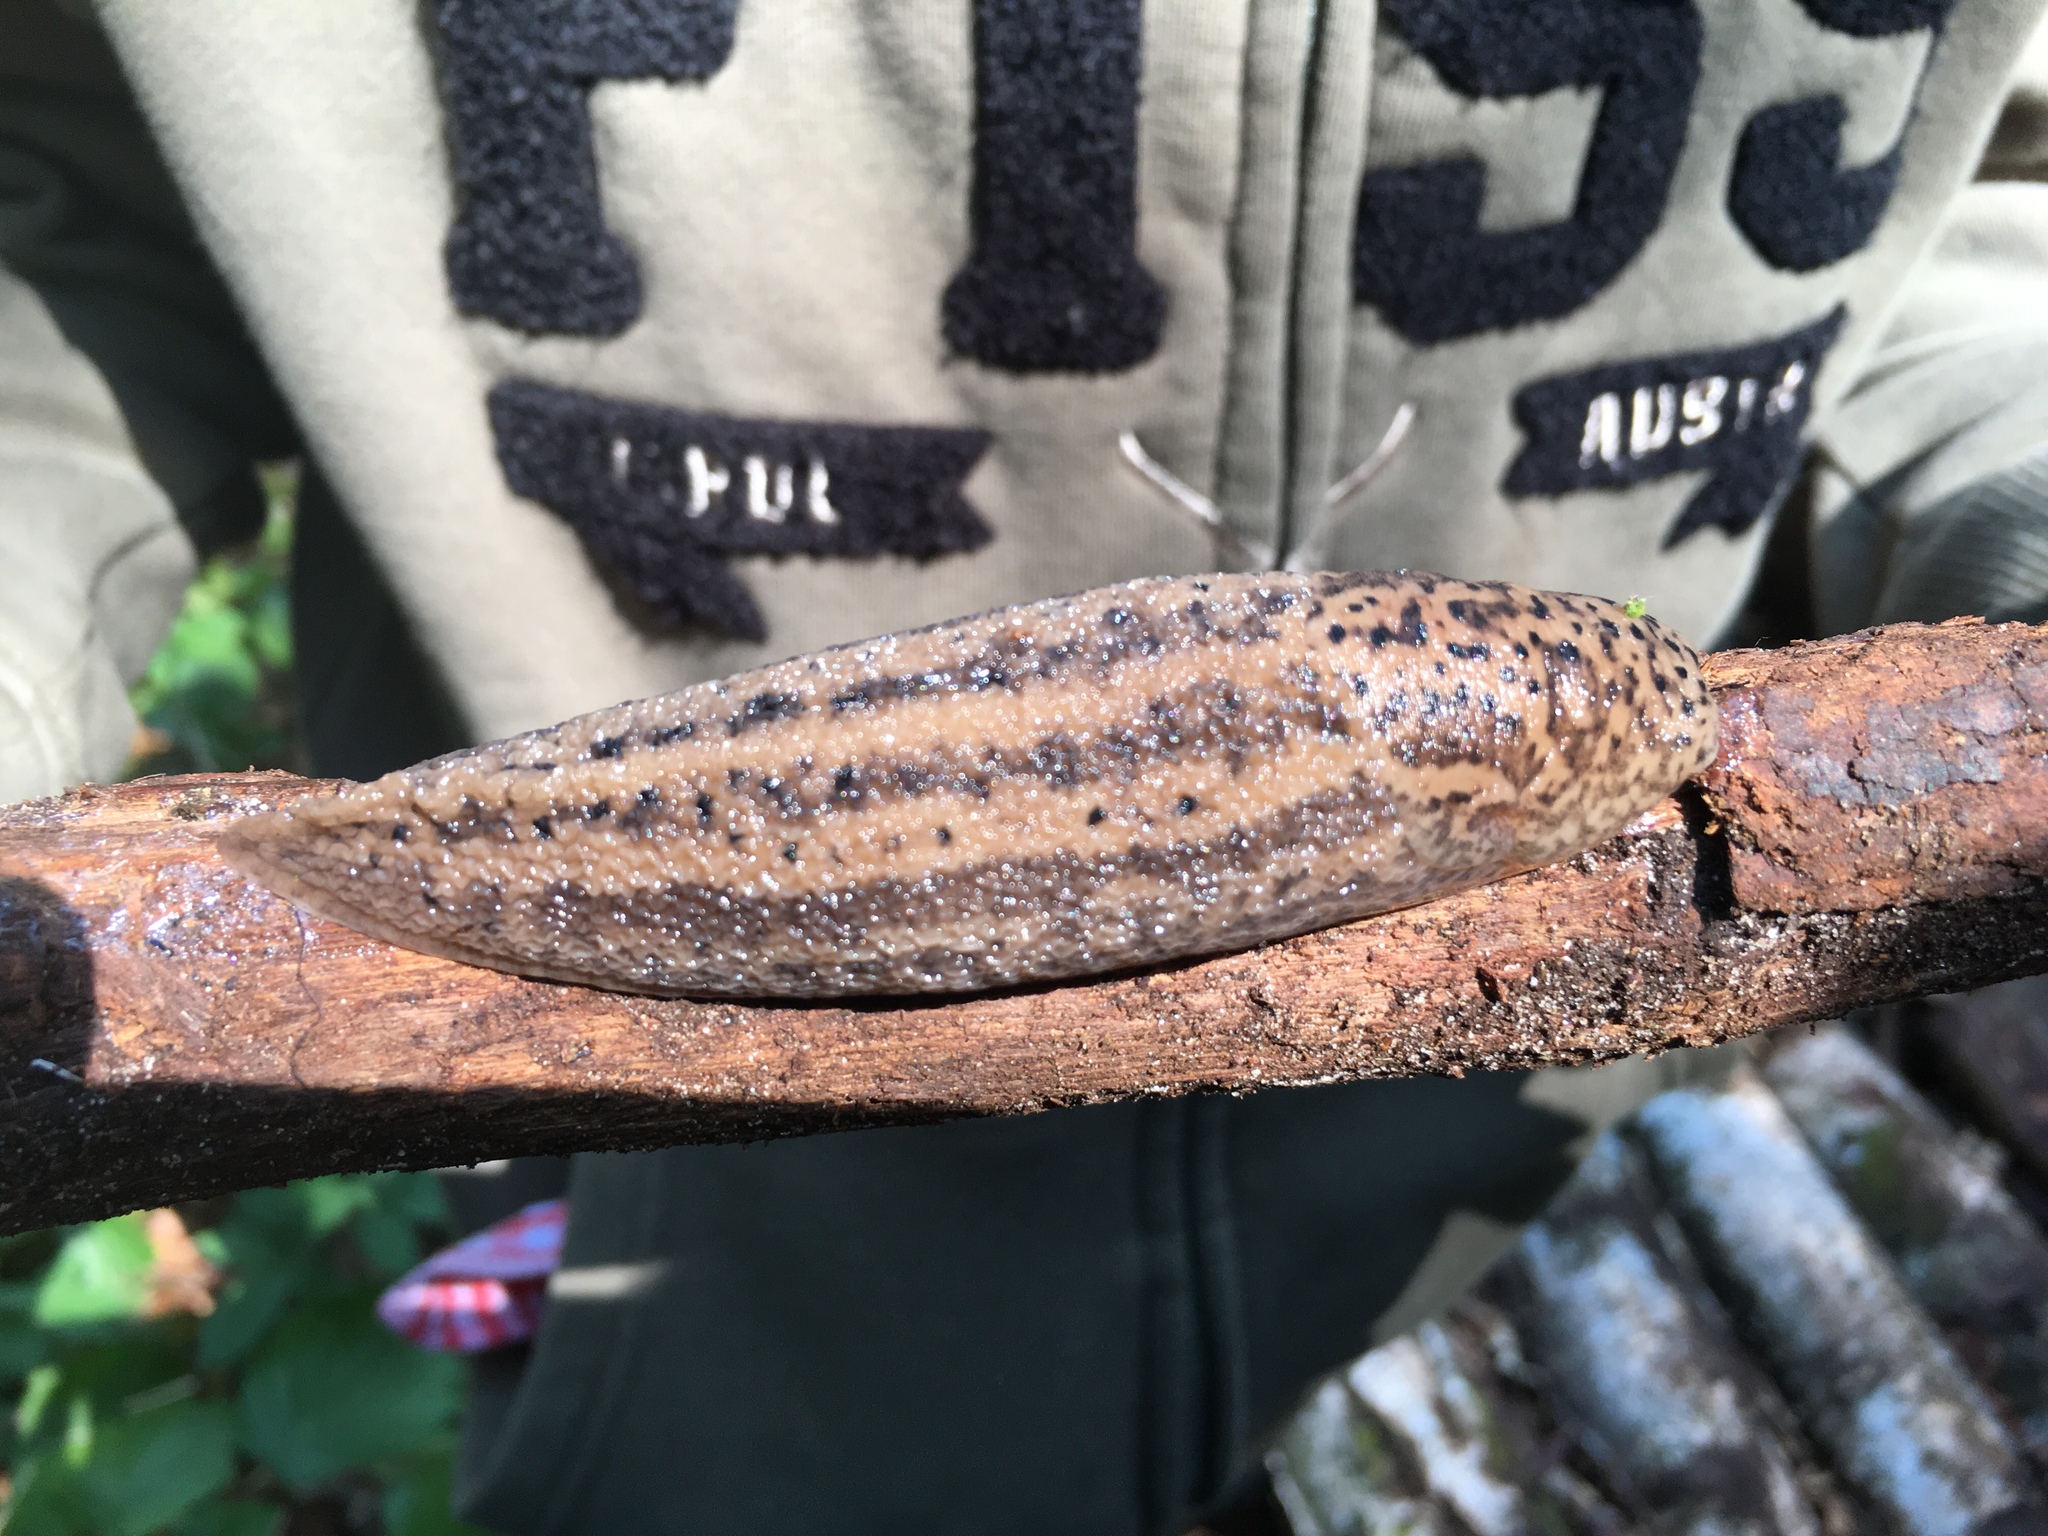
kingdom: Animalia
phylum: Mollusca
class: Gastropoda
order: Stylommatophora
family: Limacidae
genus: Limax
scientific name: Limax maximus
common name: Great grey slug
